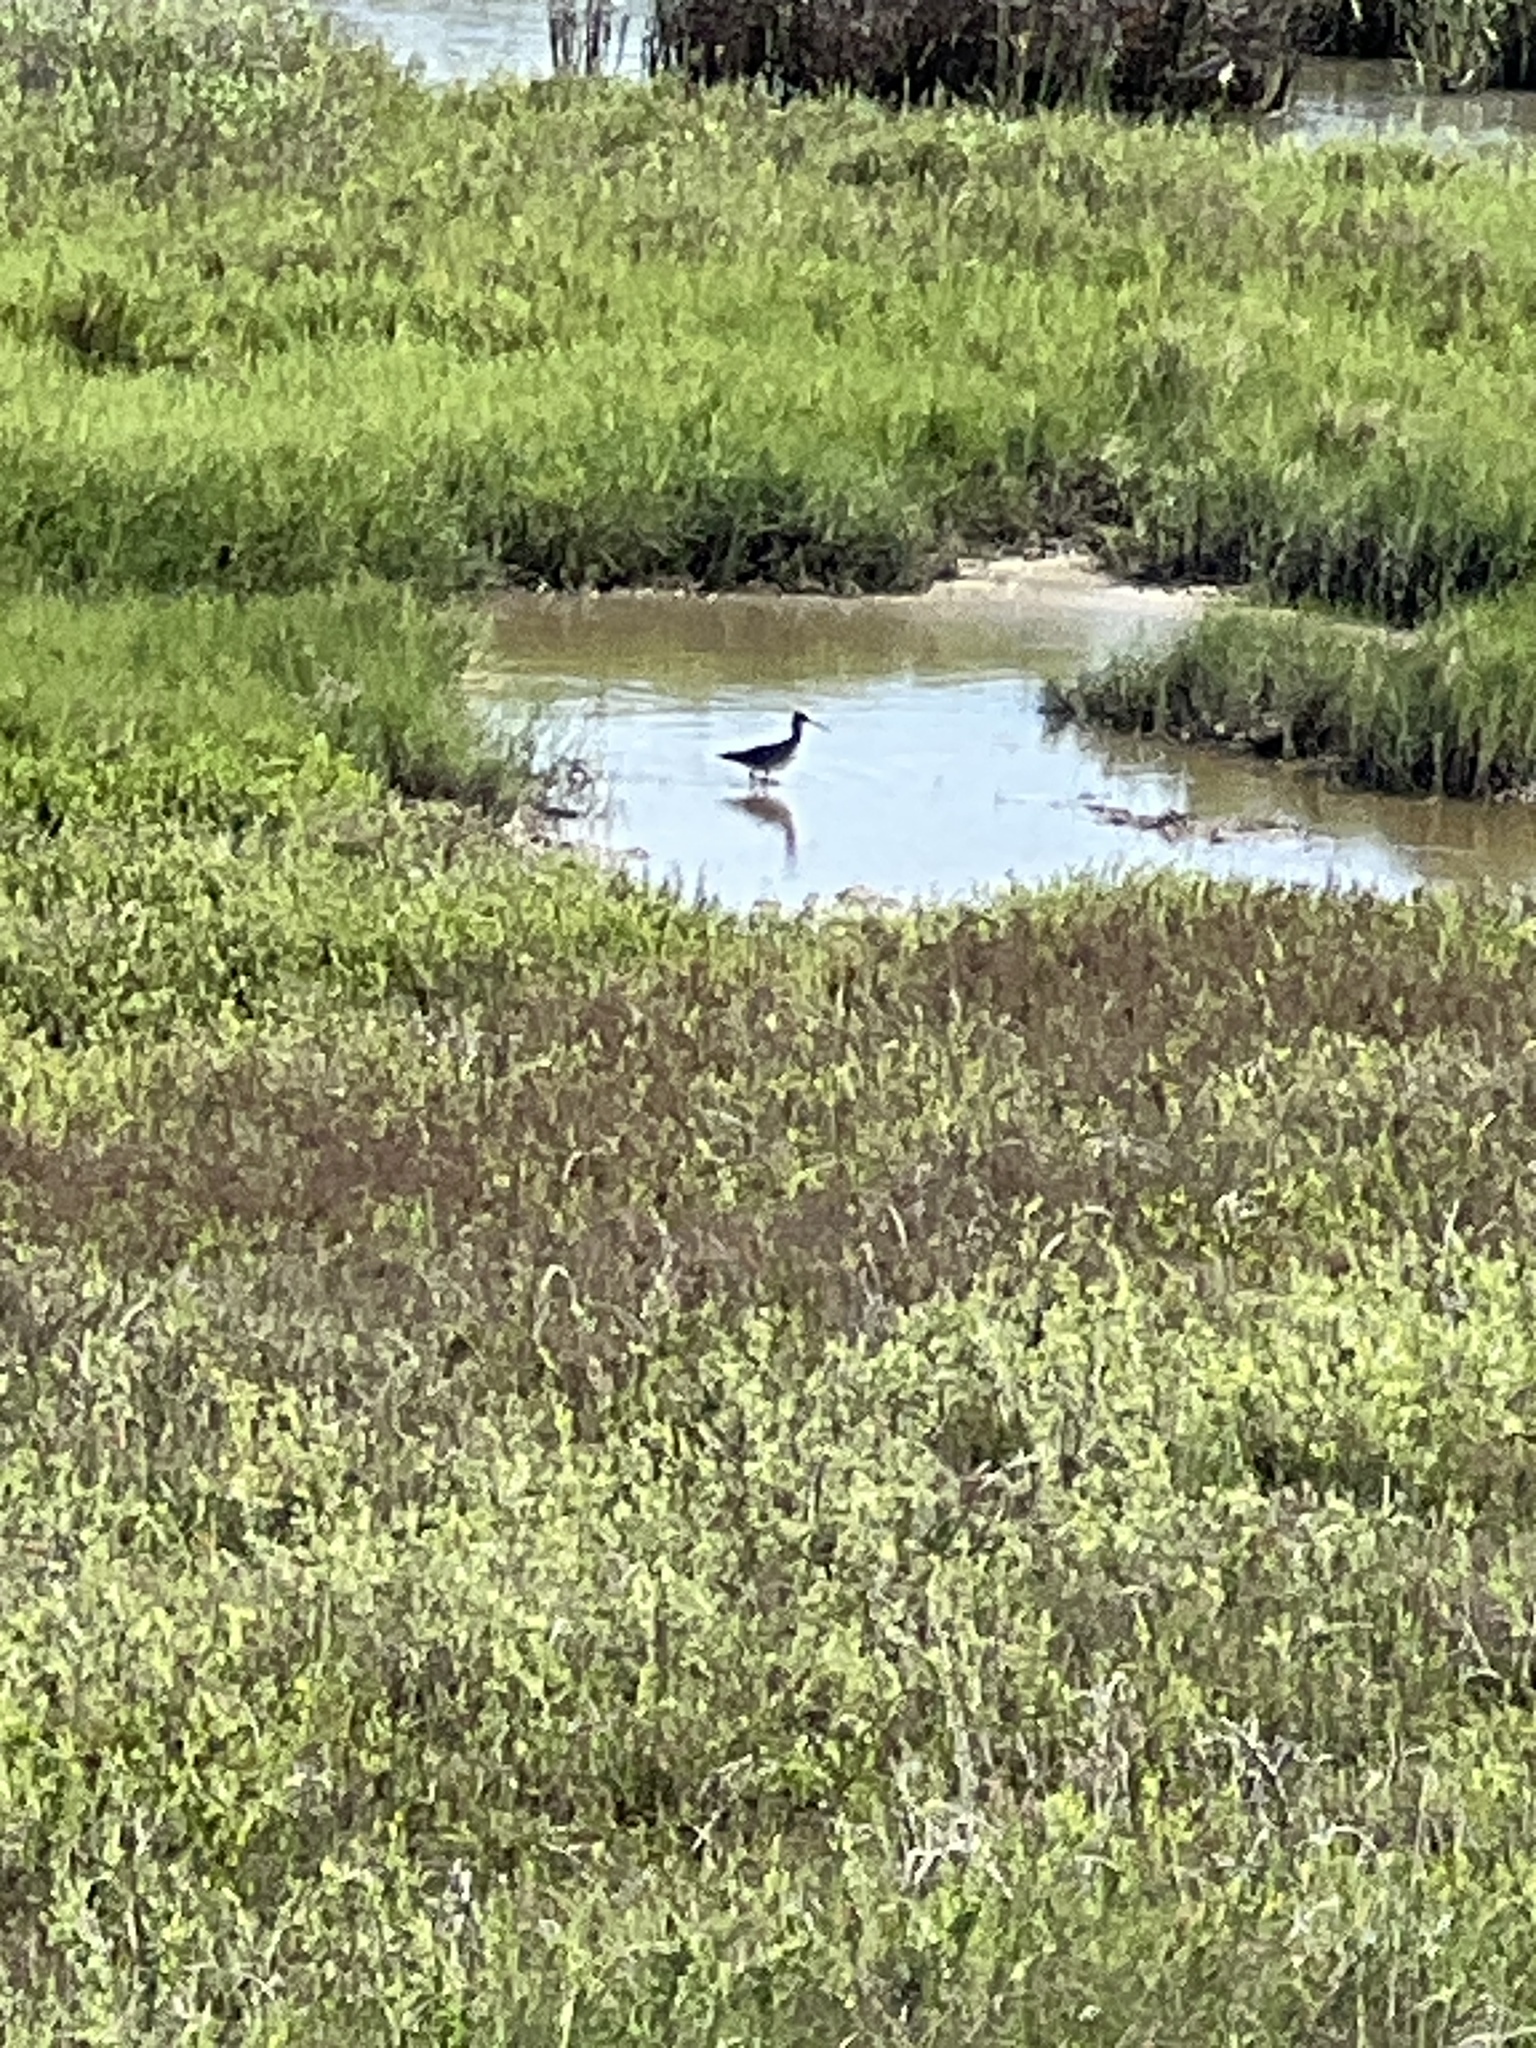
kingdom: Animalia
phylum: Chordata
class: Aves
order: Charadriiformes
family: Scolopacidae
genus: Tringa
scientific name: Tringa semipalmata
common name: Willet
